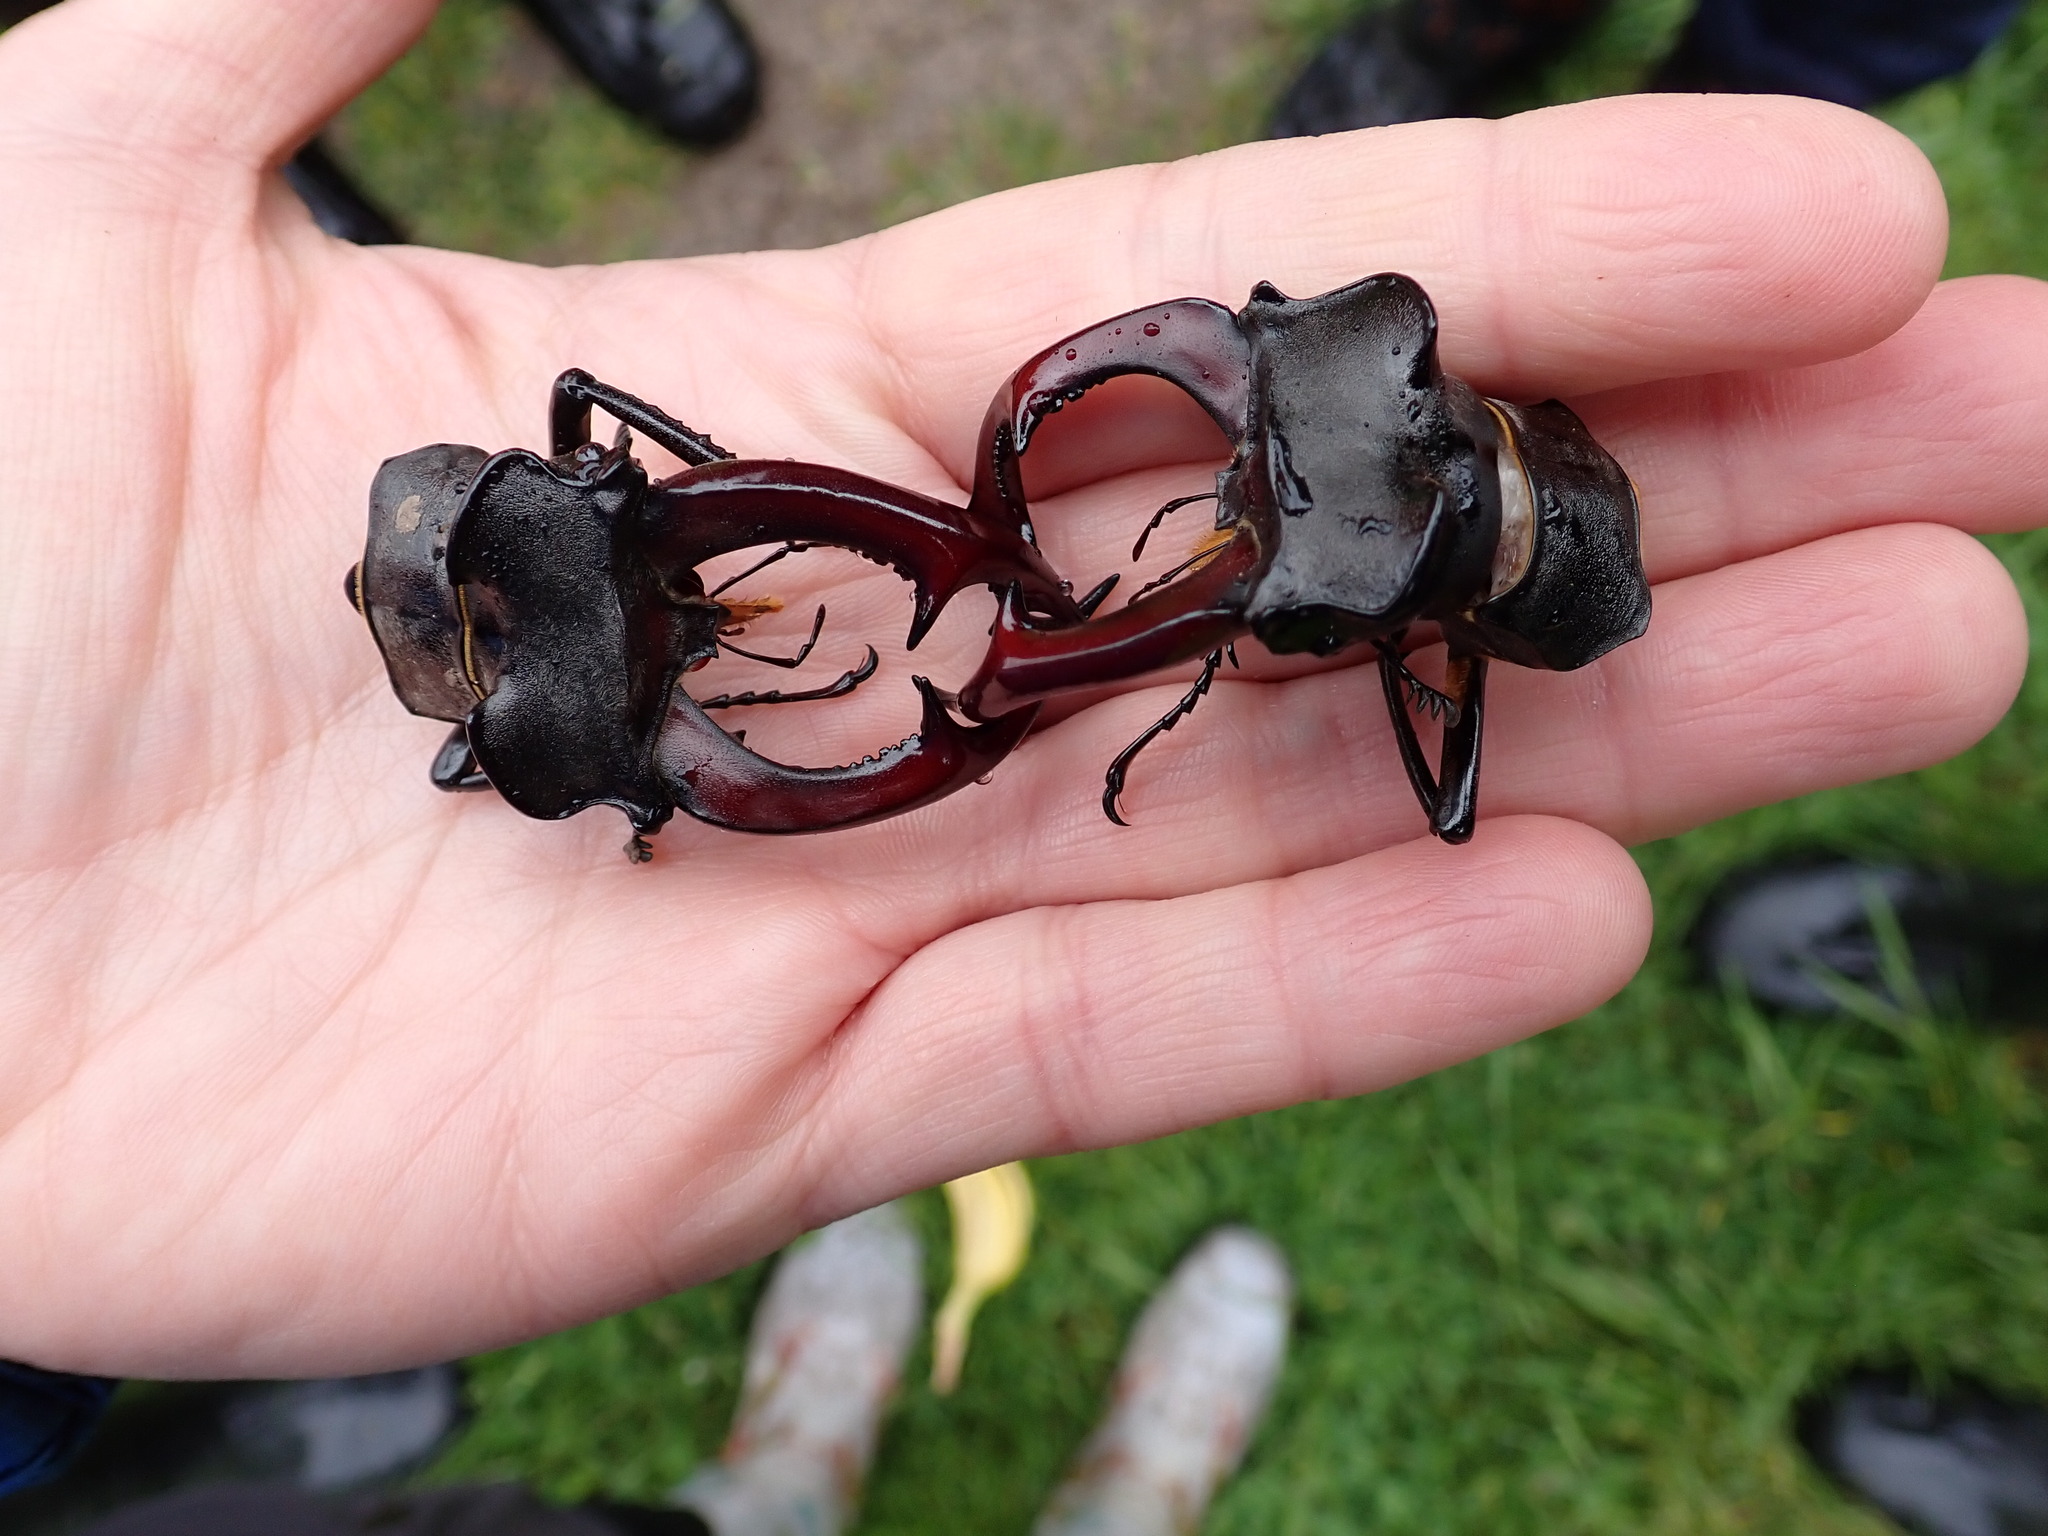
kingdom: Animalia
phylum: Arthropoda
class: Insecta
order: Coleoptera
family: Lucanidae
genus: Lucanus
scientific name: Lucanus cervus
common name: Stag beetle
